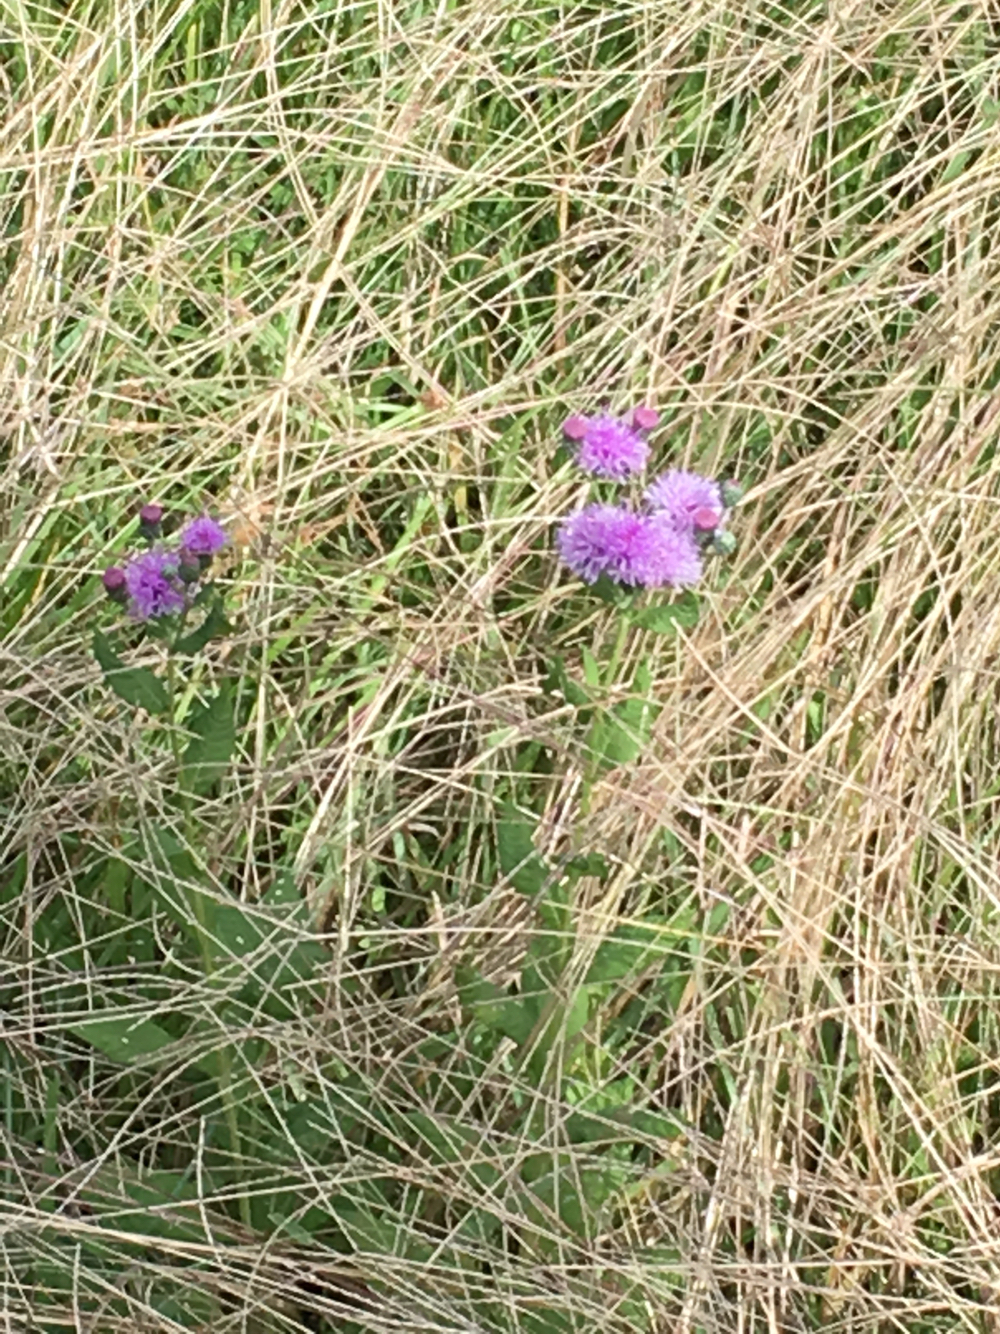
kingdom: Plantae
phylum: Tracheophyta
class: Magnoliopsida
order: Asterales
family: Asteraceae
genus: Vernonia
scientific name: Vernonia missurica
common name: Missouri ironweed
